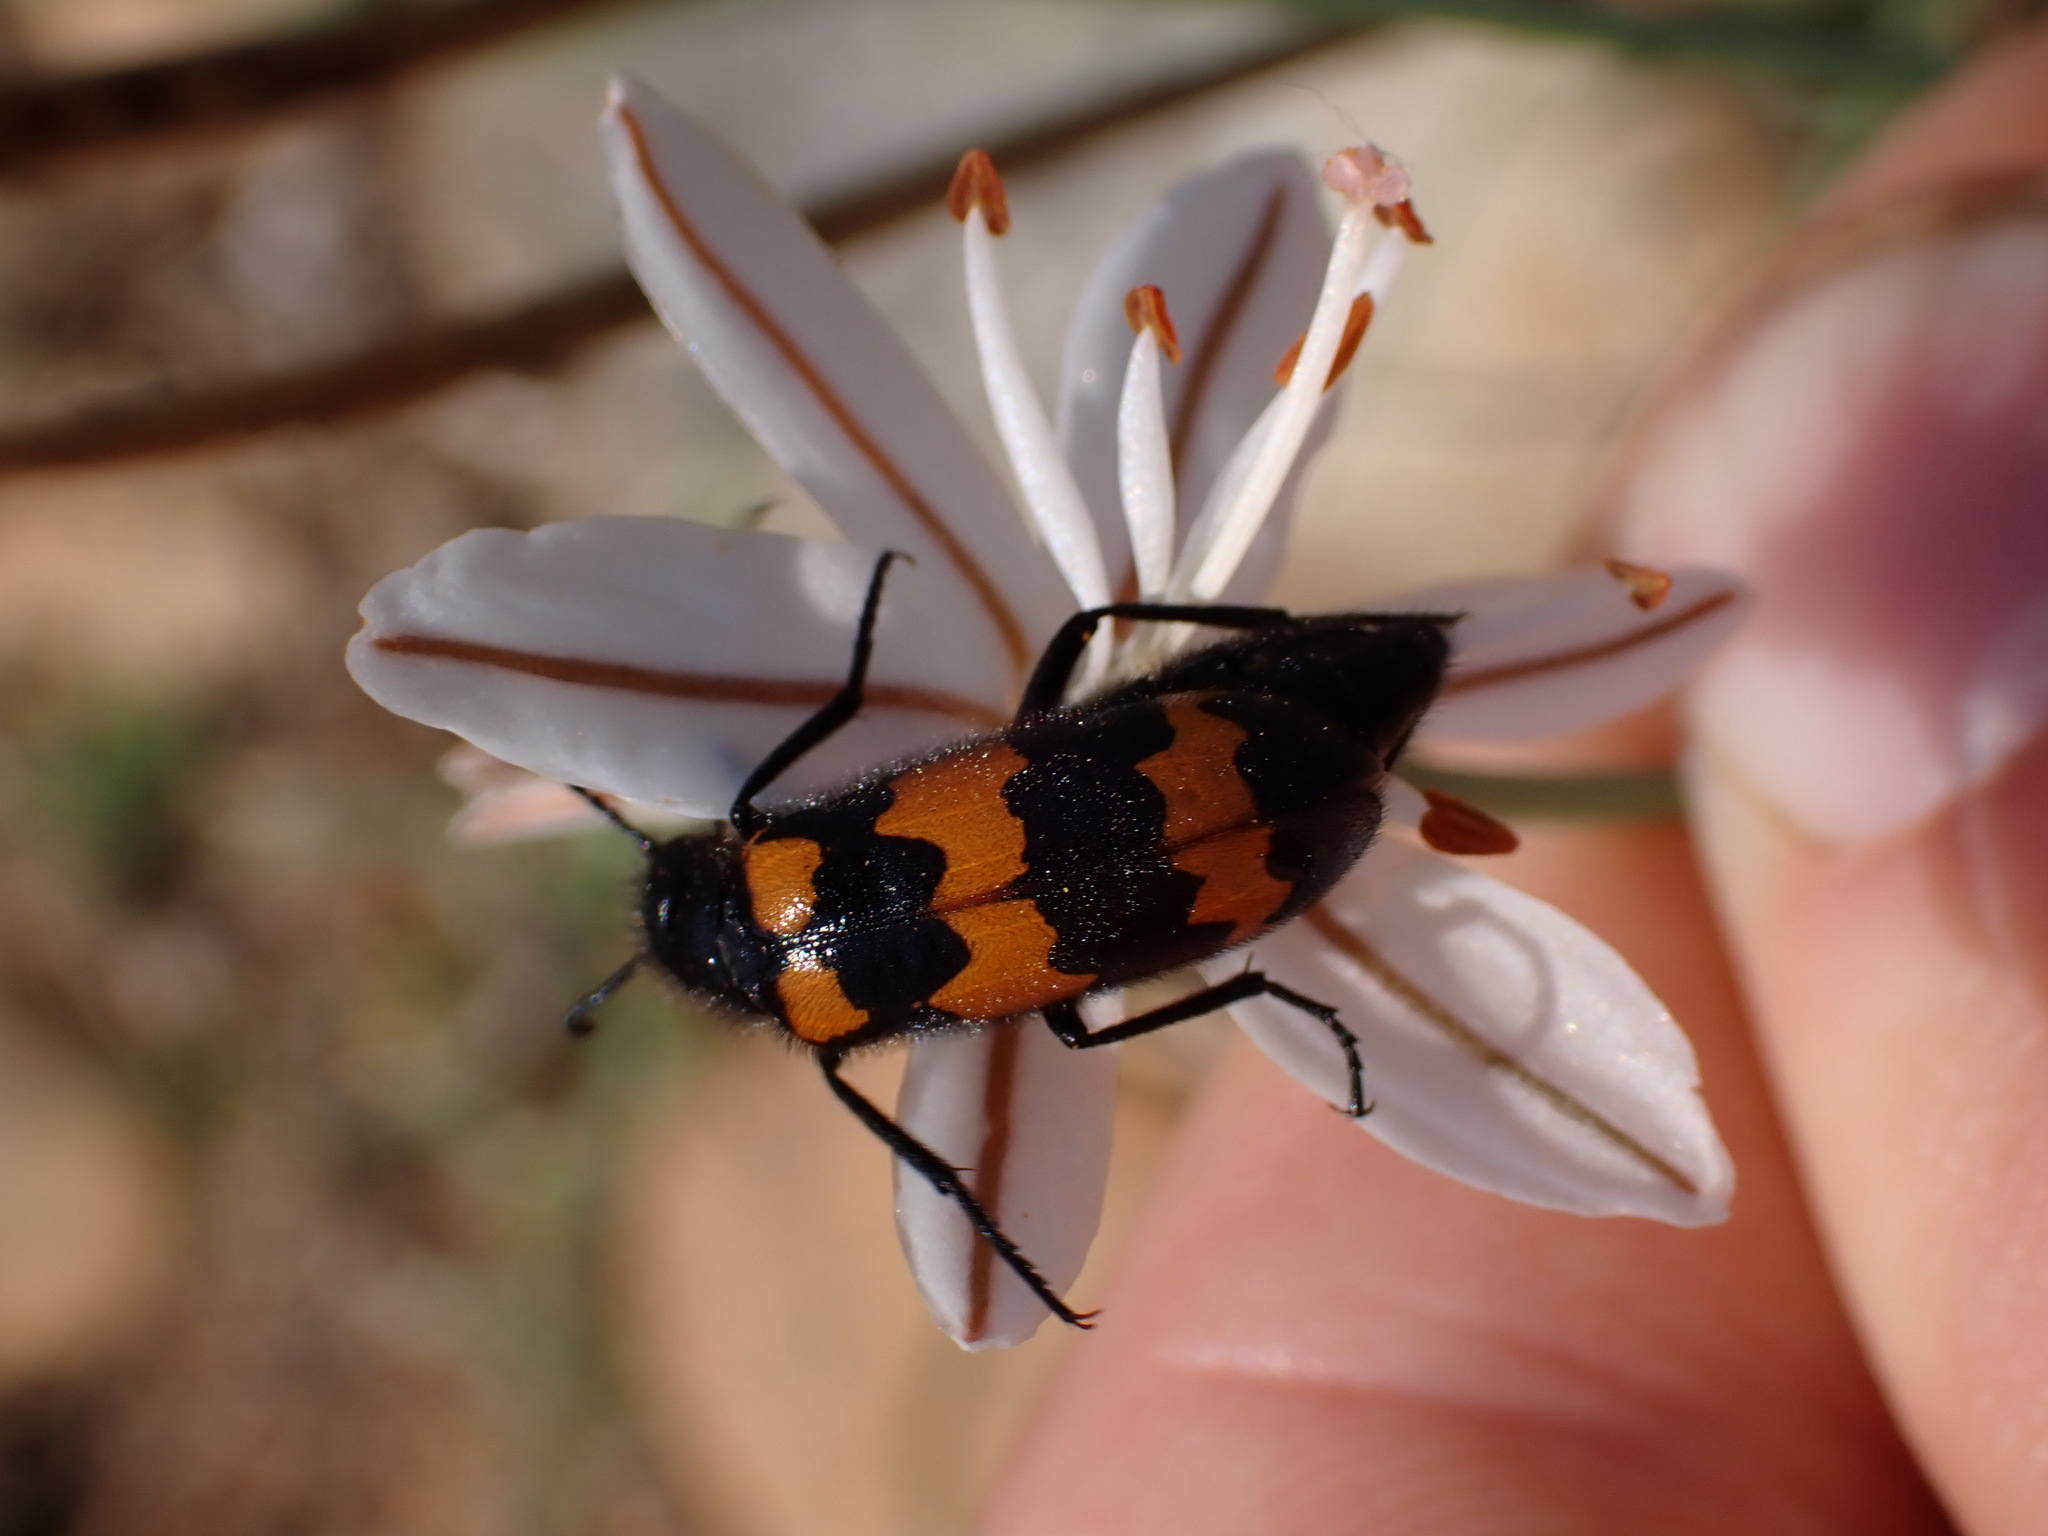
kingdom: Animalia
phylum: Arthropoda
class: Insecta
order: Coleoptera
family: Meloidae
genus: Mylabris
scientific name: Mylabris variabilis
